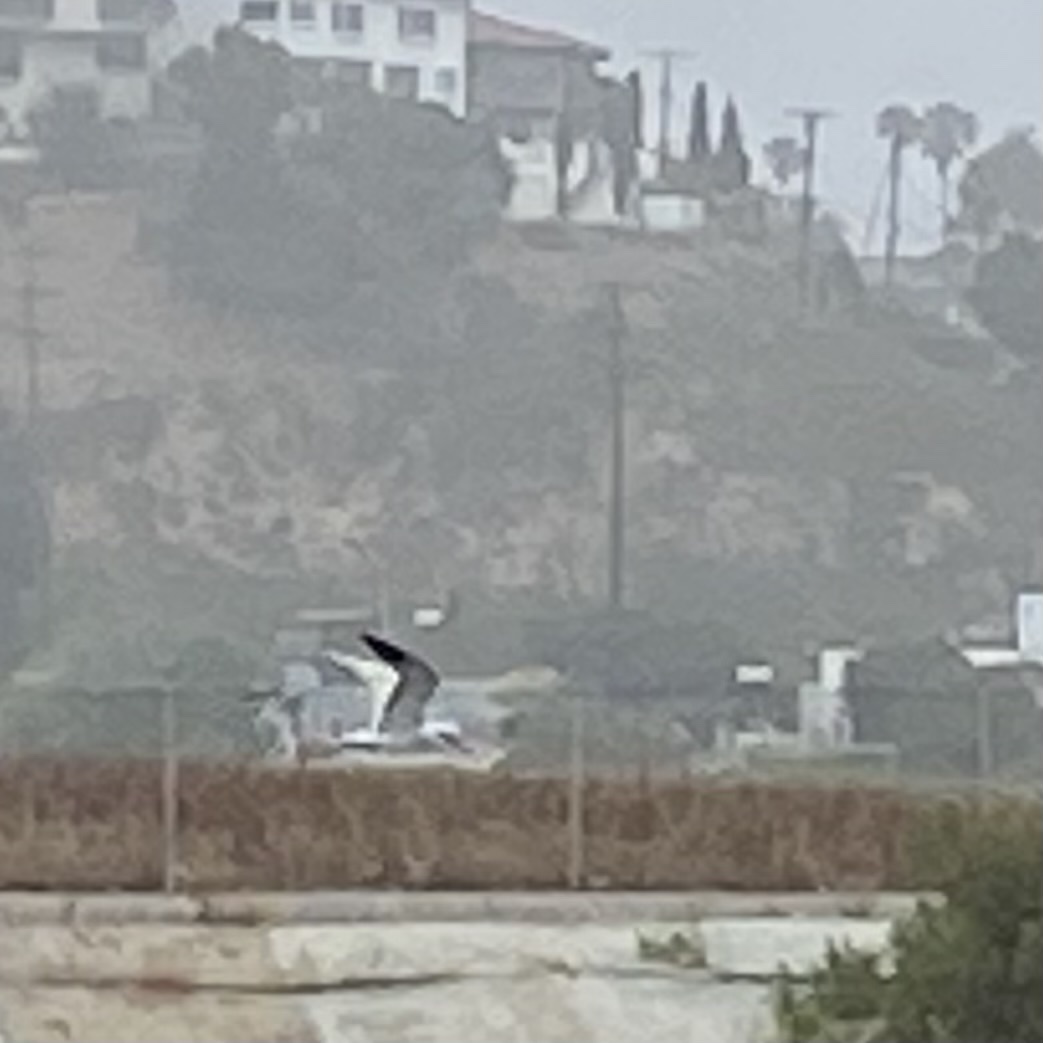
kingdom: Animalia
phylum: Chordata
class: Aves
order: Charadriiformes
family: Laridae
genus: Hydroprogne
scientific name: Hydroprogne caspia
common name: Caspian tern
